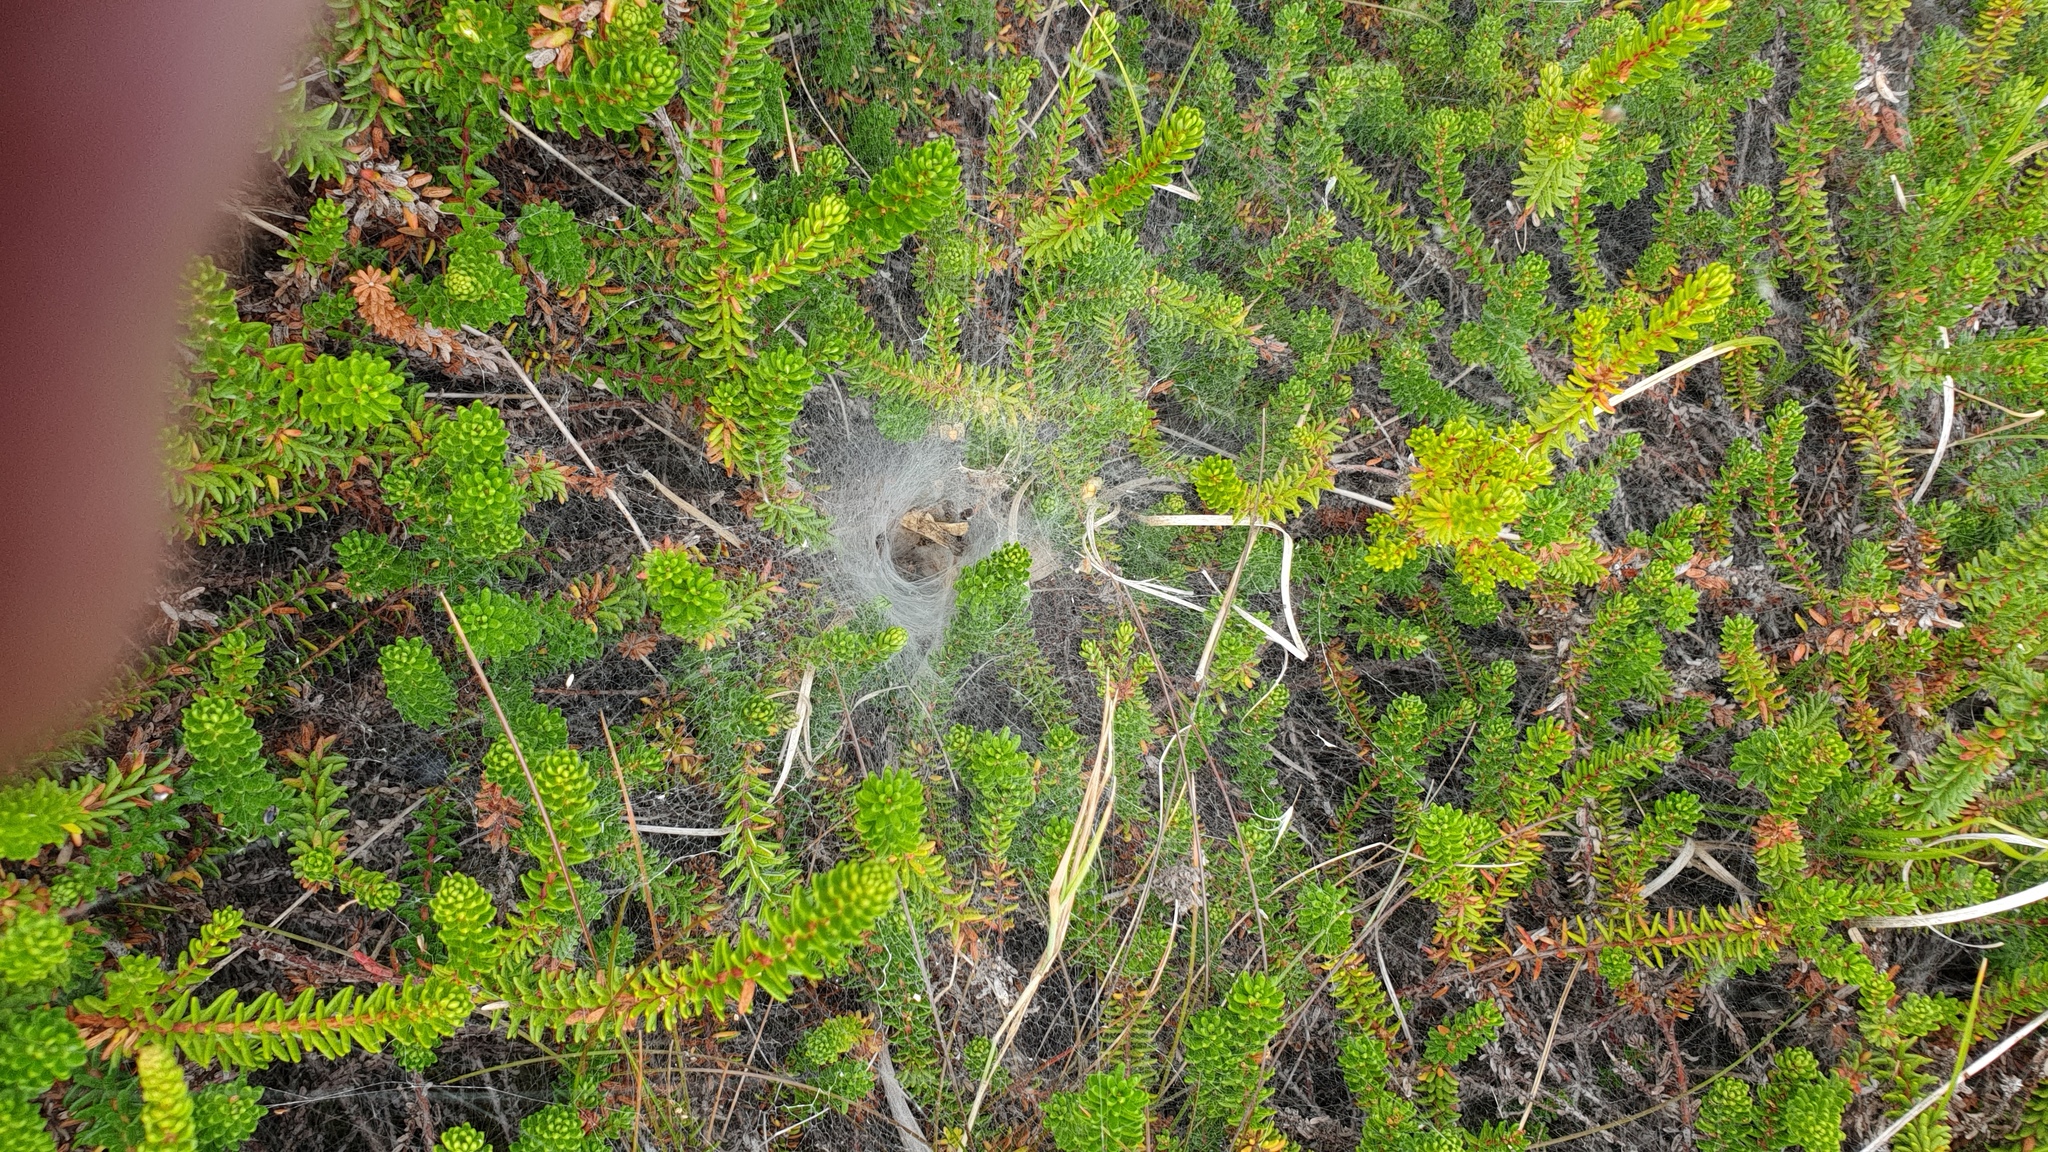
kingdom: Animalia
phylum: Arthropoda
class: Arachnida
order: Araneae
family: Agelenidae
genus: Agelena
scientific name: Agelena labyrinthica
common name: Labyrinth spider
